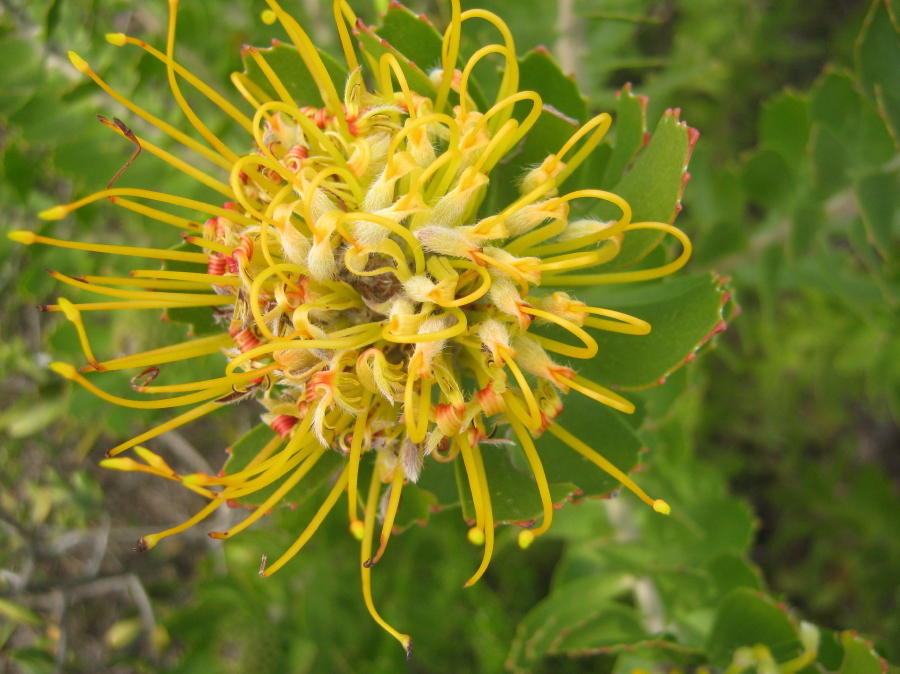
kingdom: Plantae
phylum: Tracheophyta
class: Magnoliopsida
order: Proteales
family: Proteaceae
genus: Leucospermum
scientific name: Leucospermum praecox
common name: Mossel bay pincushion
